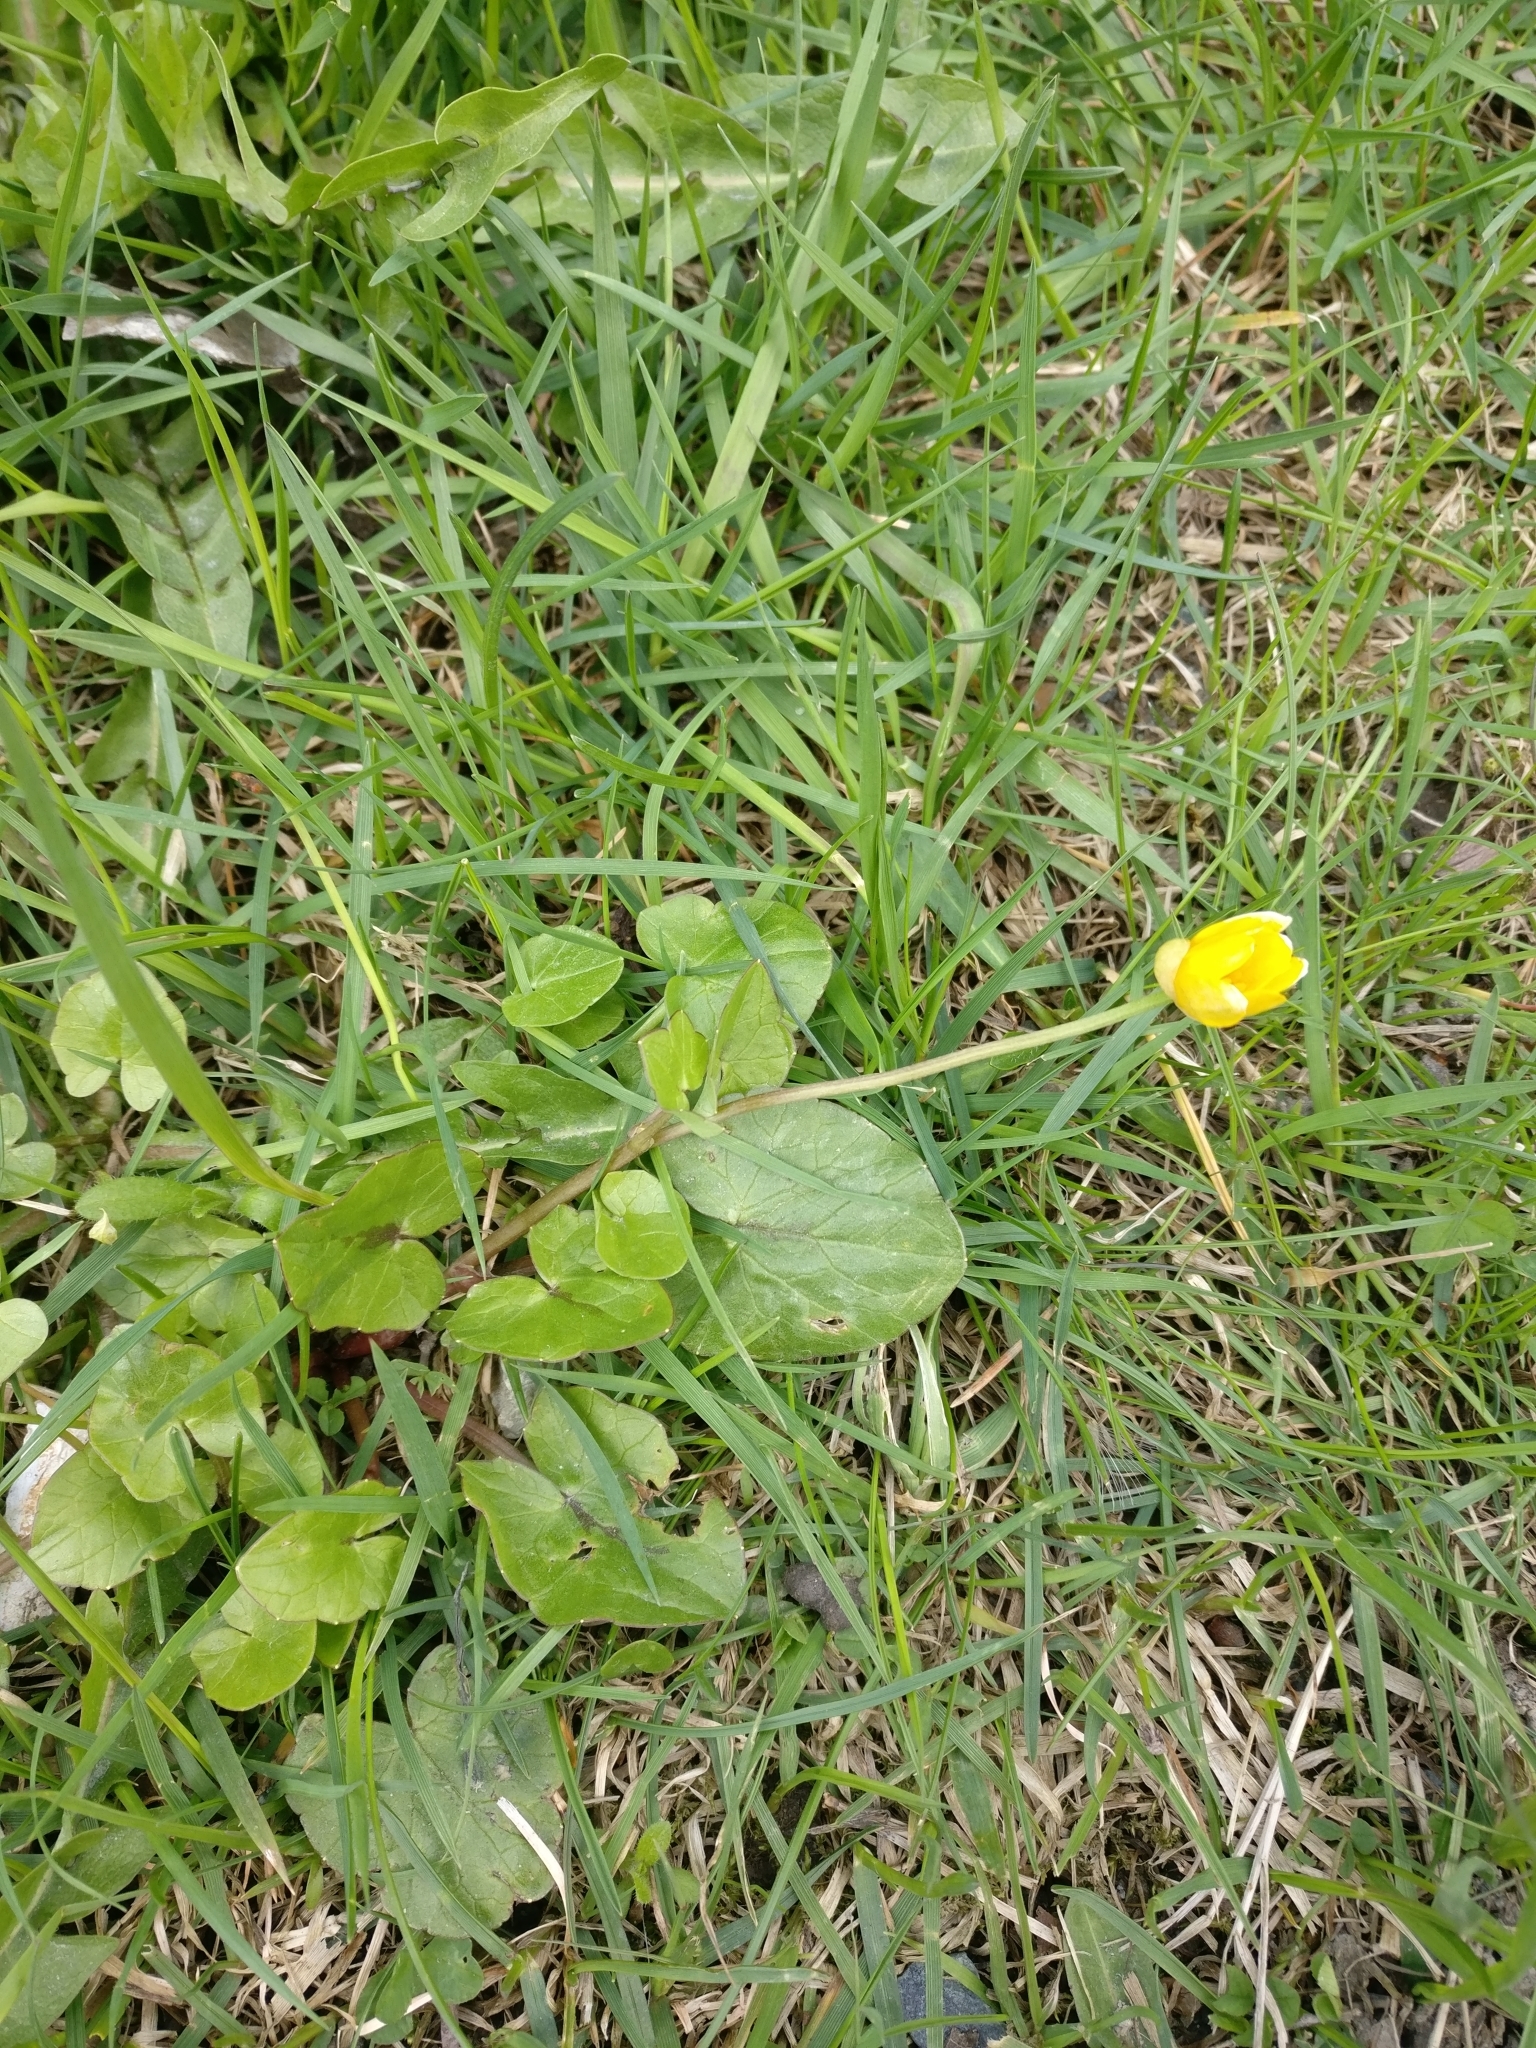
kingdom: Plantae
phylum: Tracheophyta
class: Magnoliopsida
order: Ranunculales
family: Ranunculaceae
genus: Ficaria
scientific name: Ficaria verna
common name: Lesser celandine
